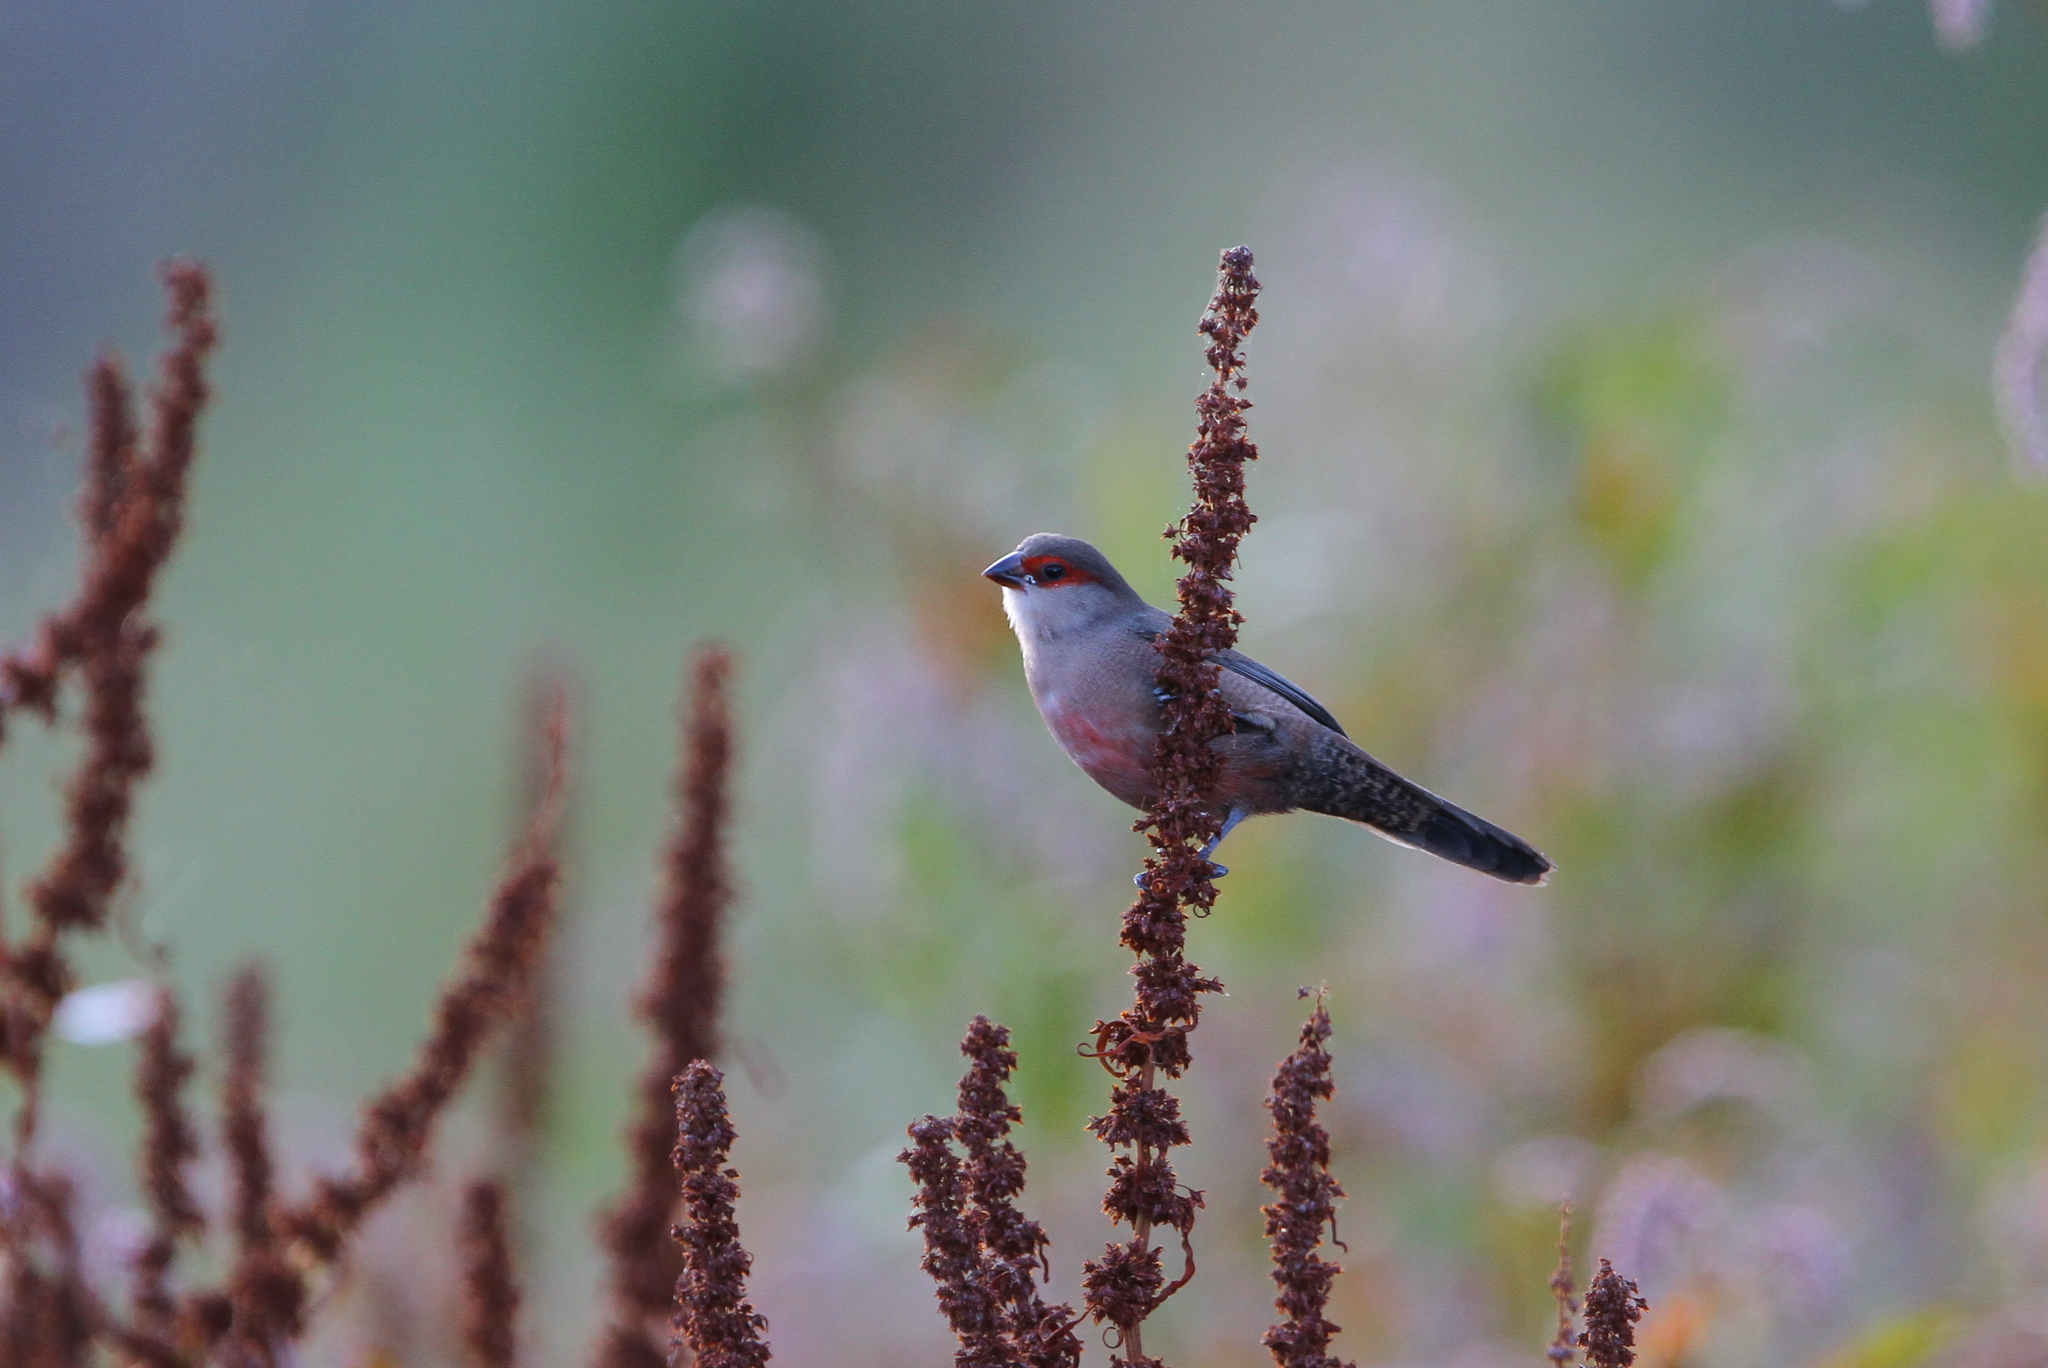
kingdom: Animalia
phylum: Chordata
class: Aves
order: Passeriformes
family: Estrildidae
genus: Estrilda
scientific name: Estrilda astrild
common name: Common waxbill
